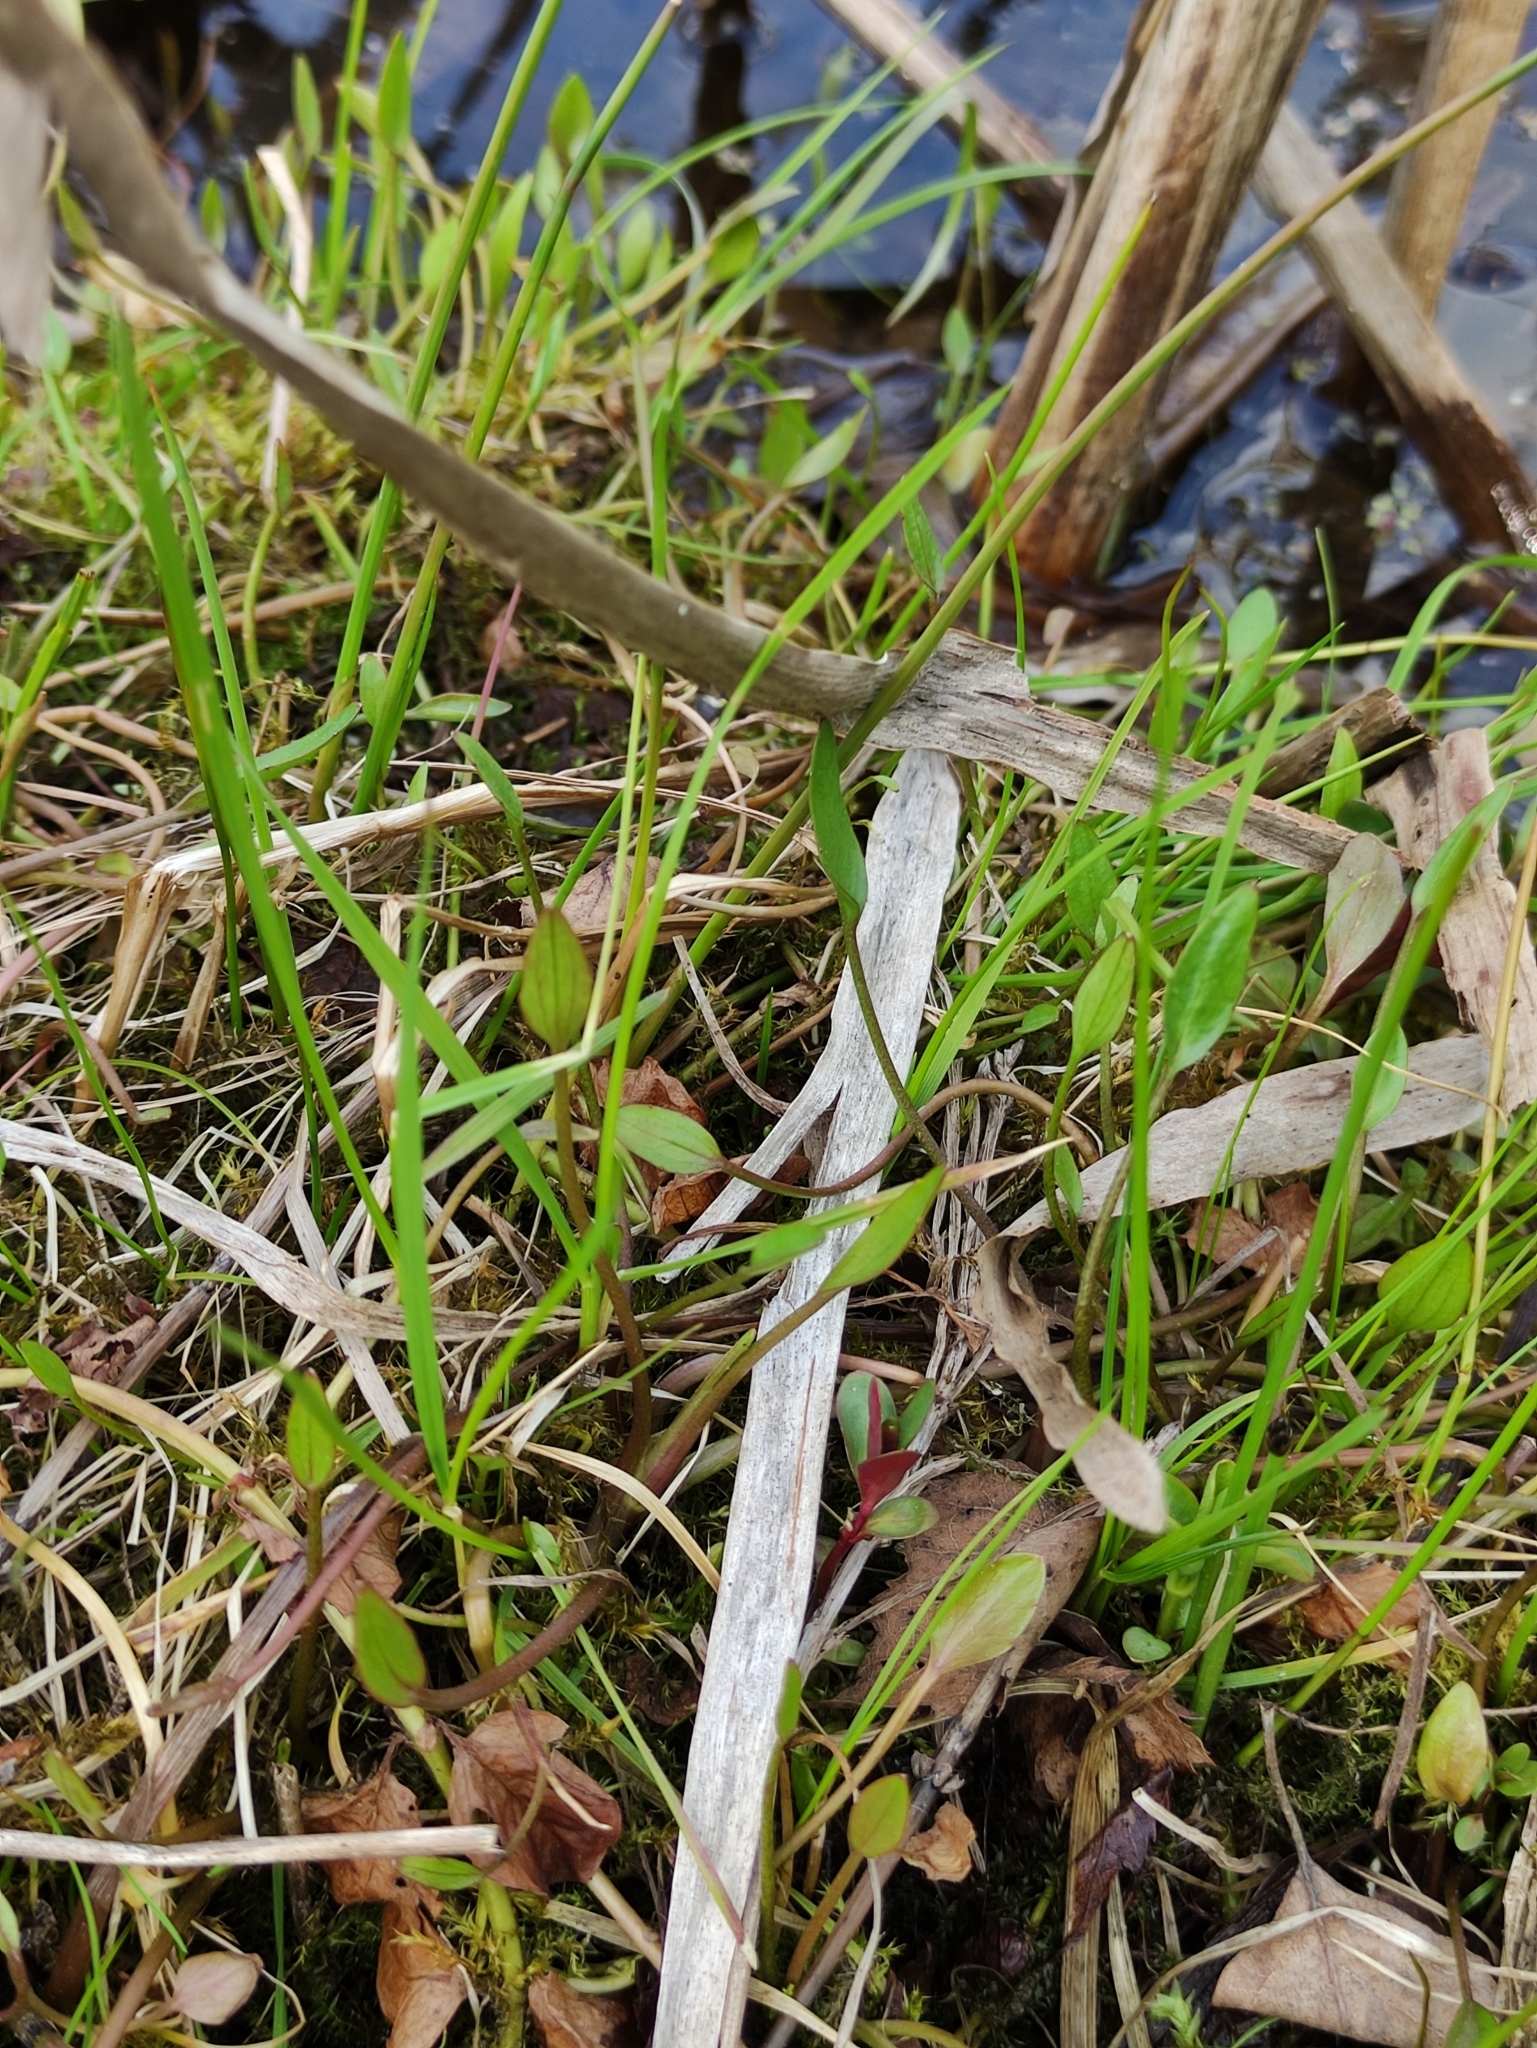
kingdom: Plantae
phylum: Tracheophyta
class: Magnoliopsida
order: Ranunculales
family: Ranunculaceae
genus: Ranunculus
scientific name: Ranunculus flammula
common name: Lesser spearwort
